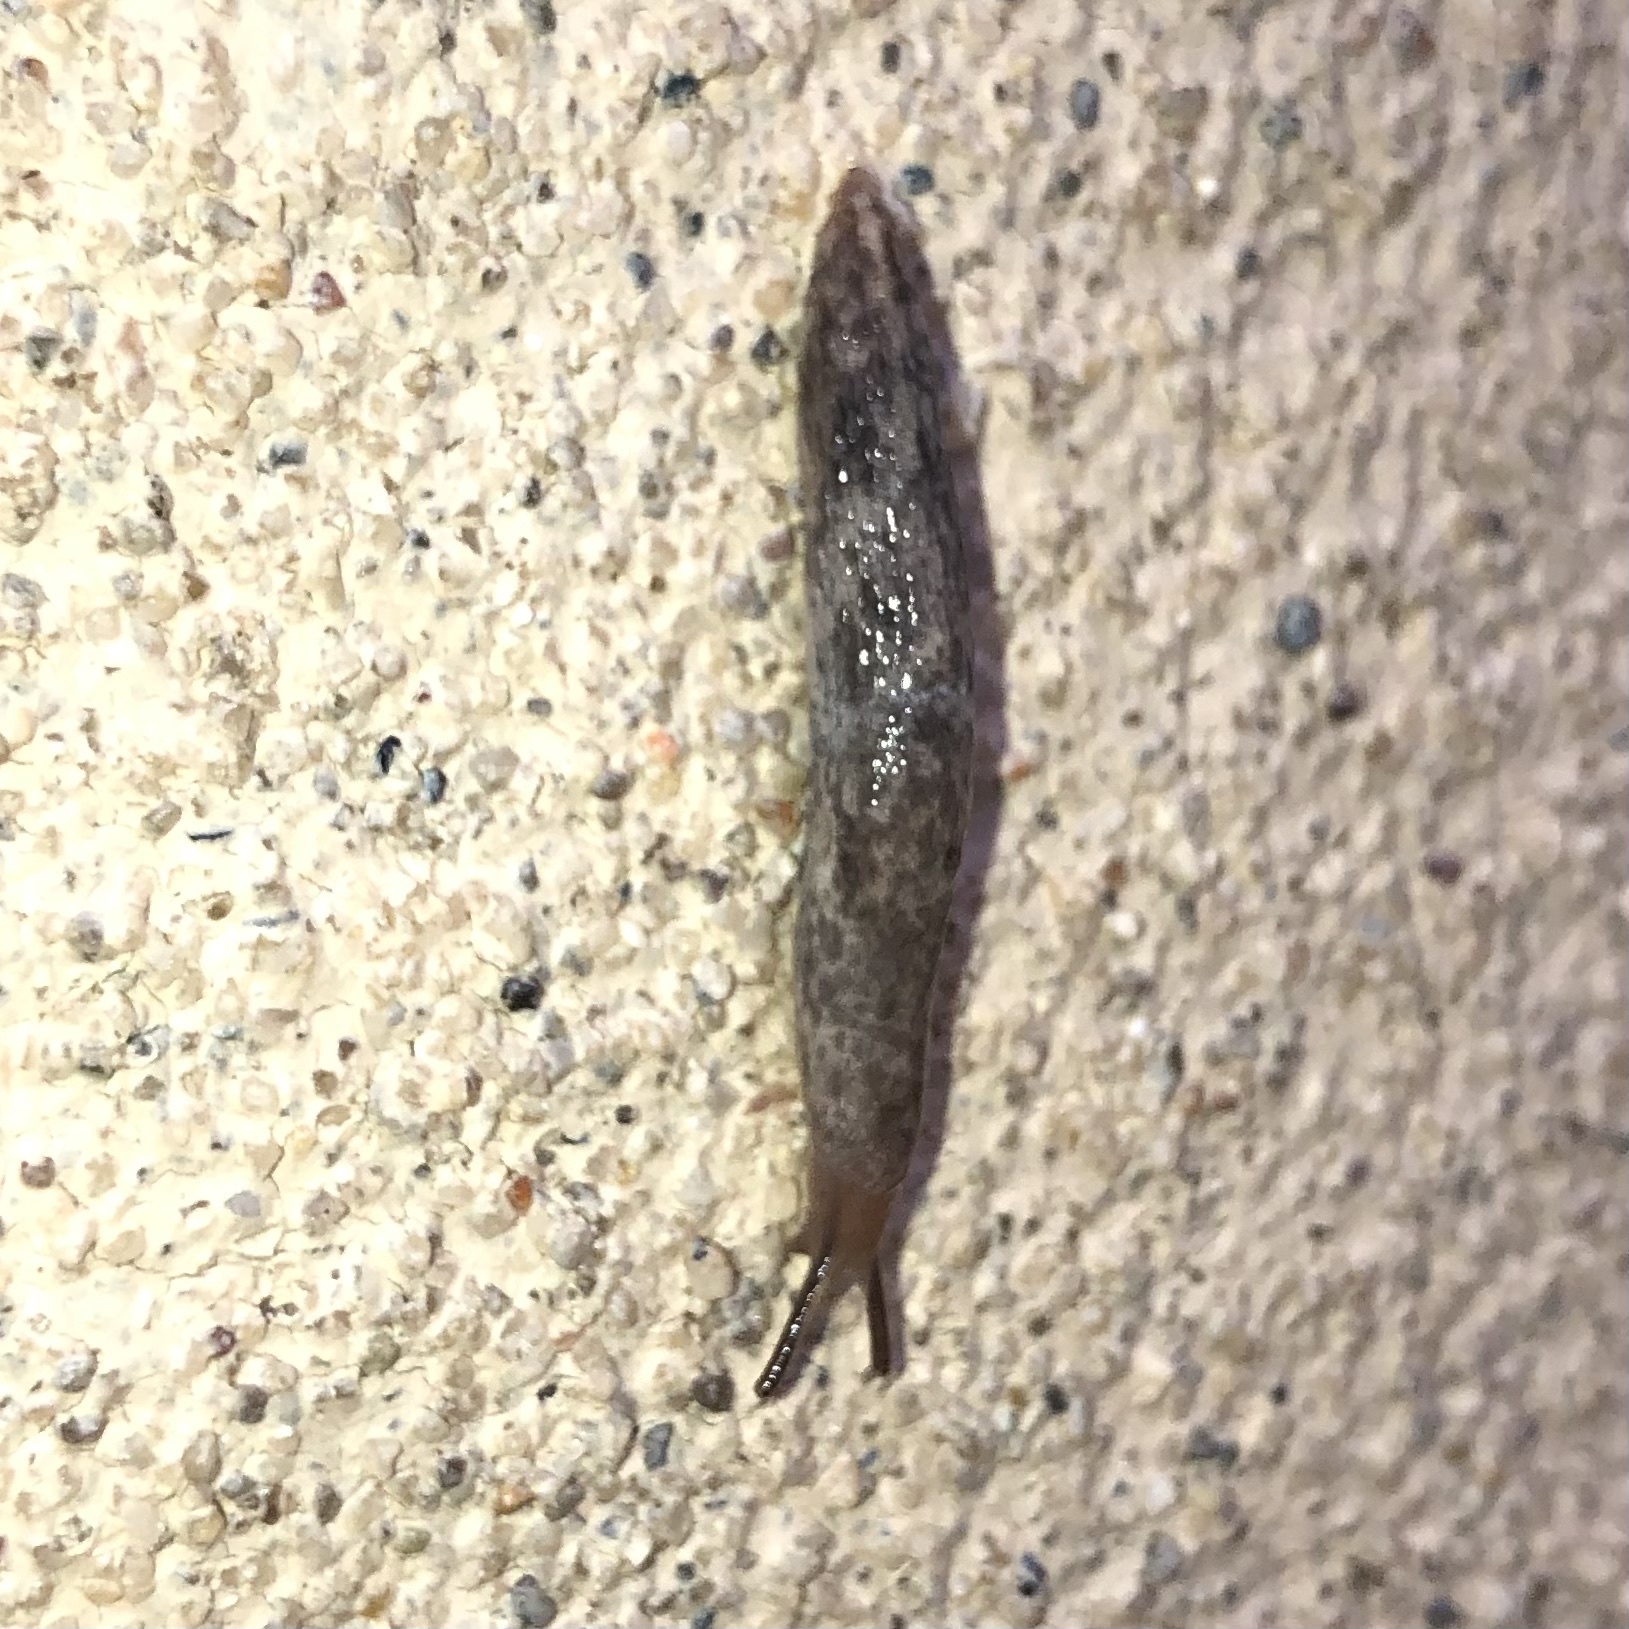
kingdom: Animalia
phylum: Mollusca
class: Gastropoda
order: Stylommatophora
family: Agriolimacidae
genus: Deroceras
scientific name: Deroceras reticulatum
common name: Gray field slug
